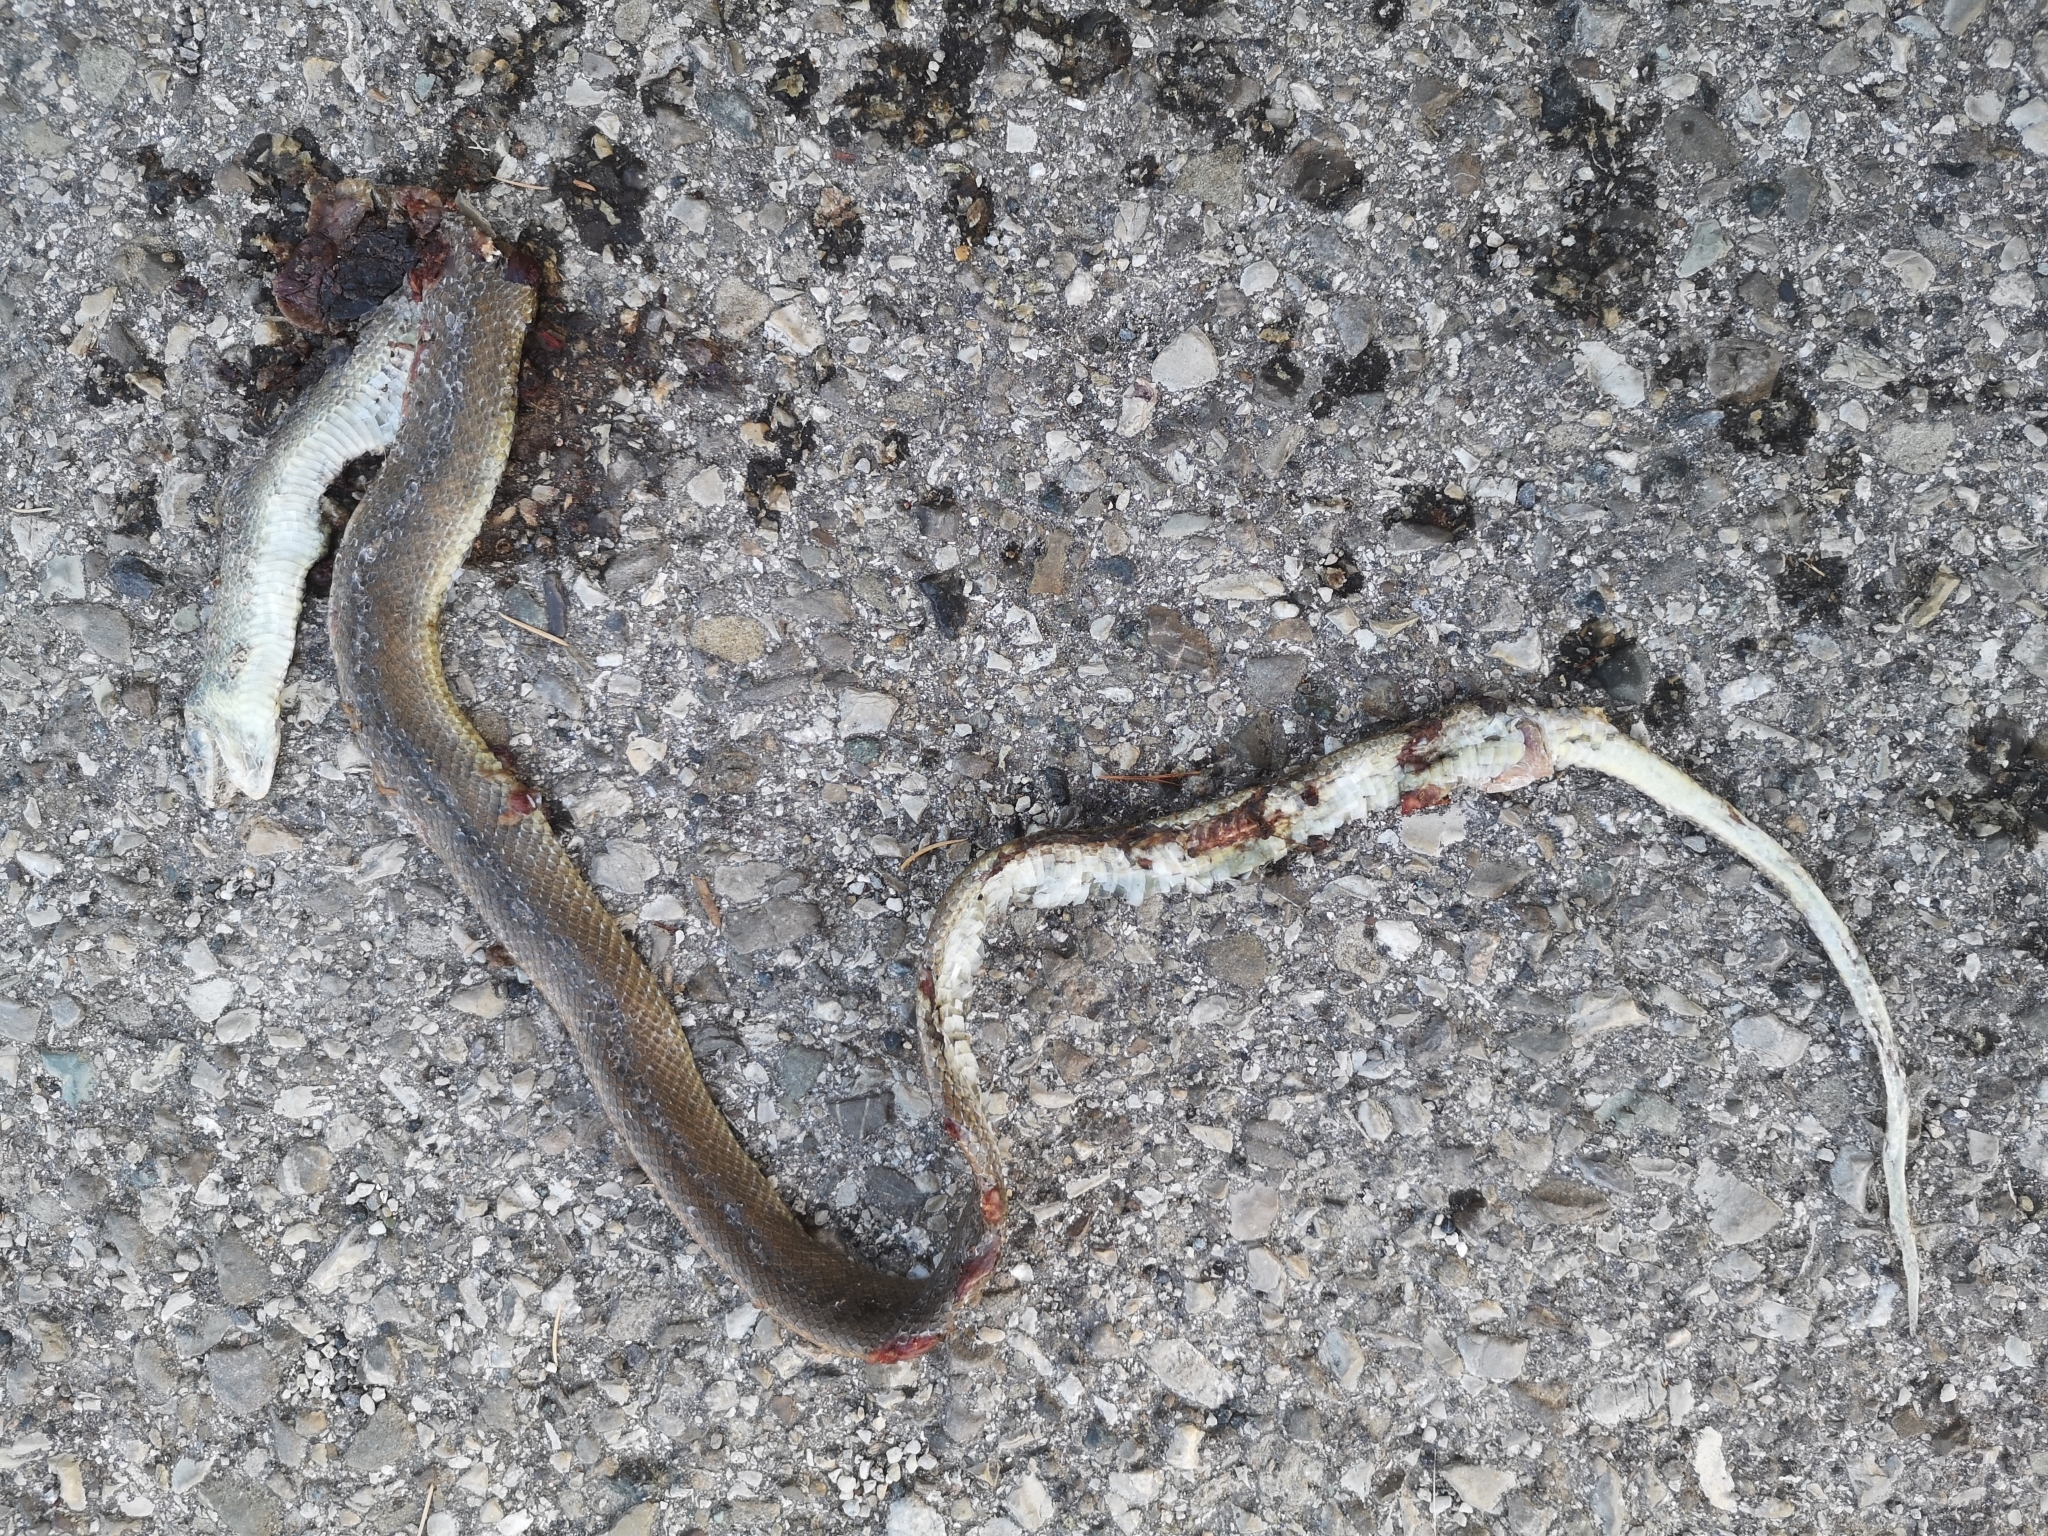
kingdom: Animalia
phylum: Chordata
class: Squamata
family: Colubridae
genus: Zamenis
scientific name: Zamenis longissimus
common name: Aesculapean snake
